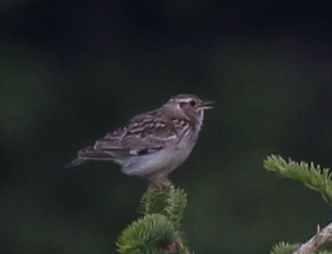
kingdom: Animalia
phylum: Chordata
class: Aves
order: Passeriformes
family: Alaudidae
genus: Lullula
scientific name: Lullula arborea
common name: Woodlark
